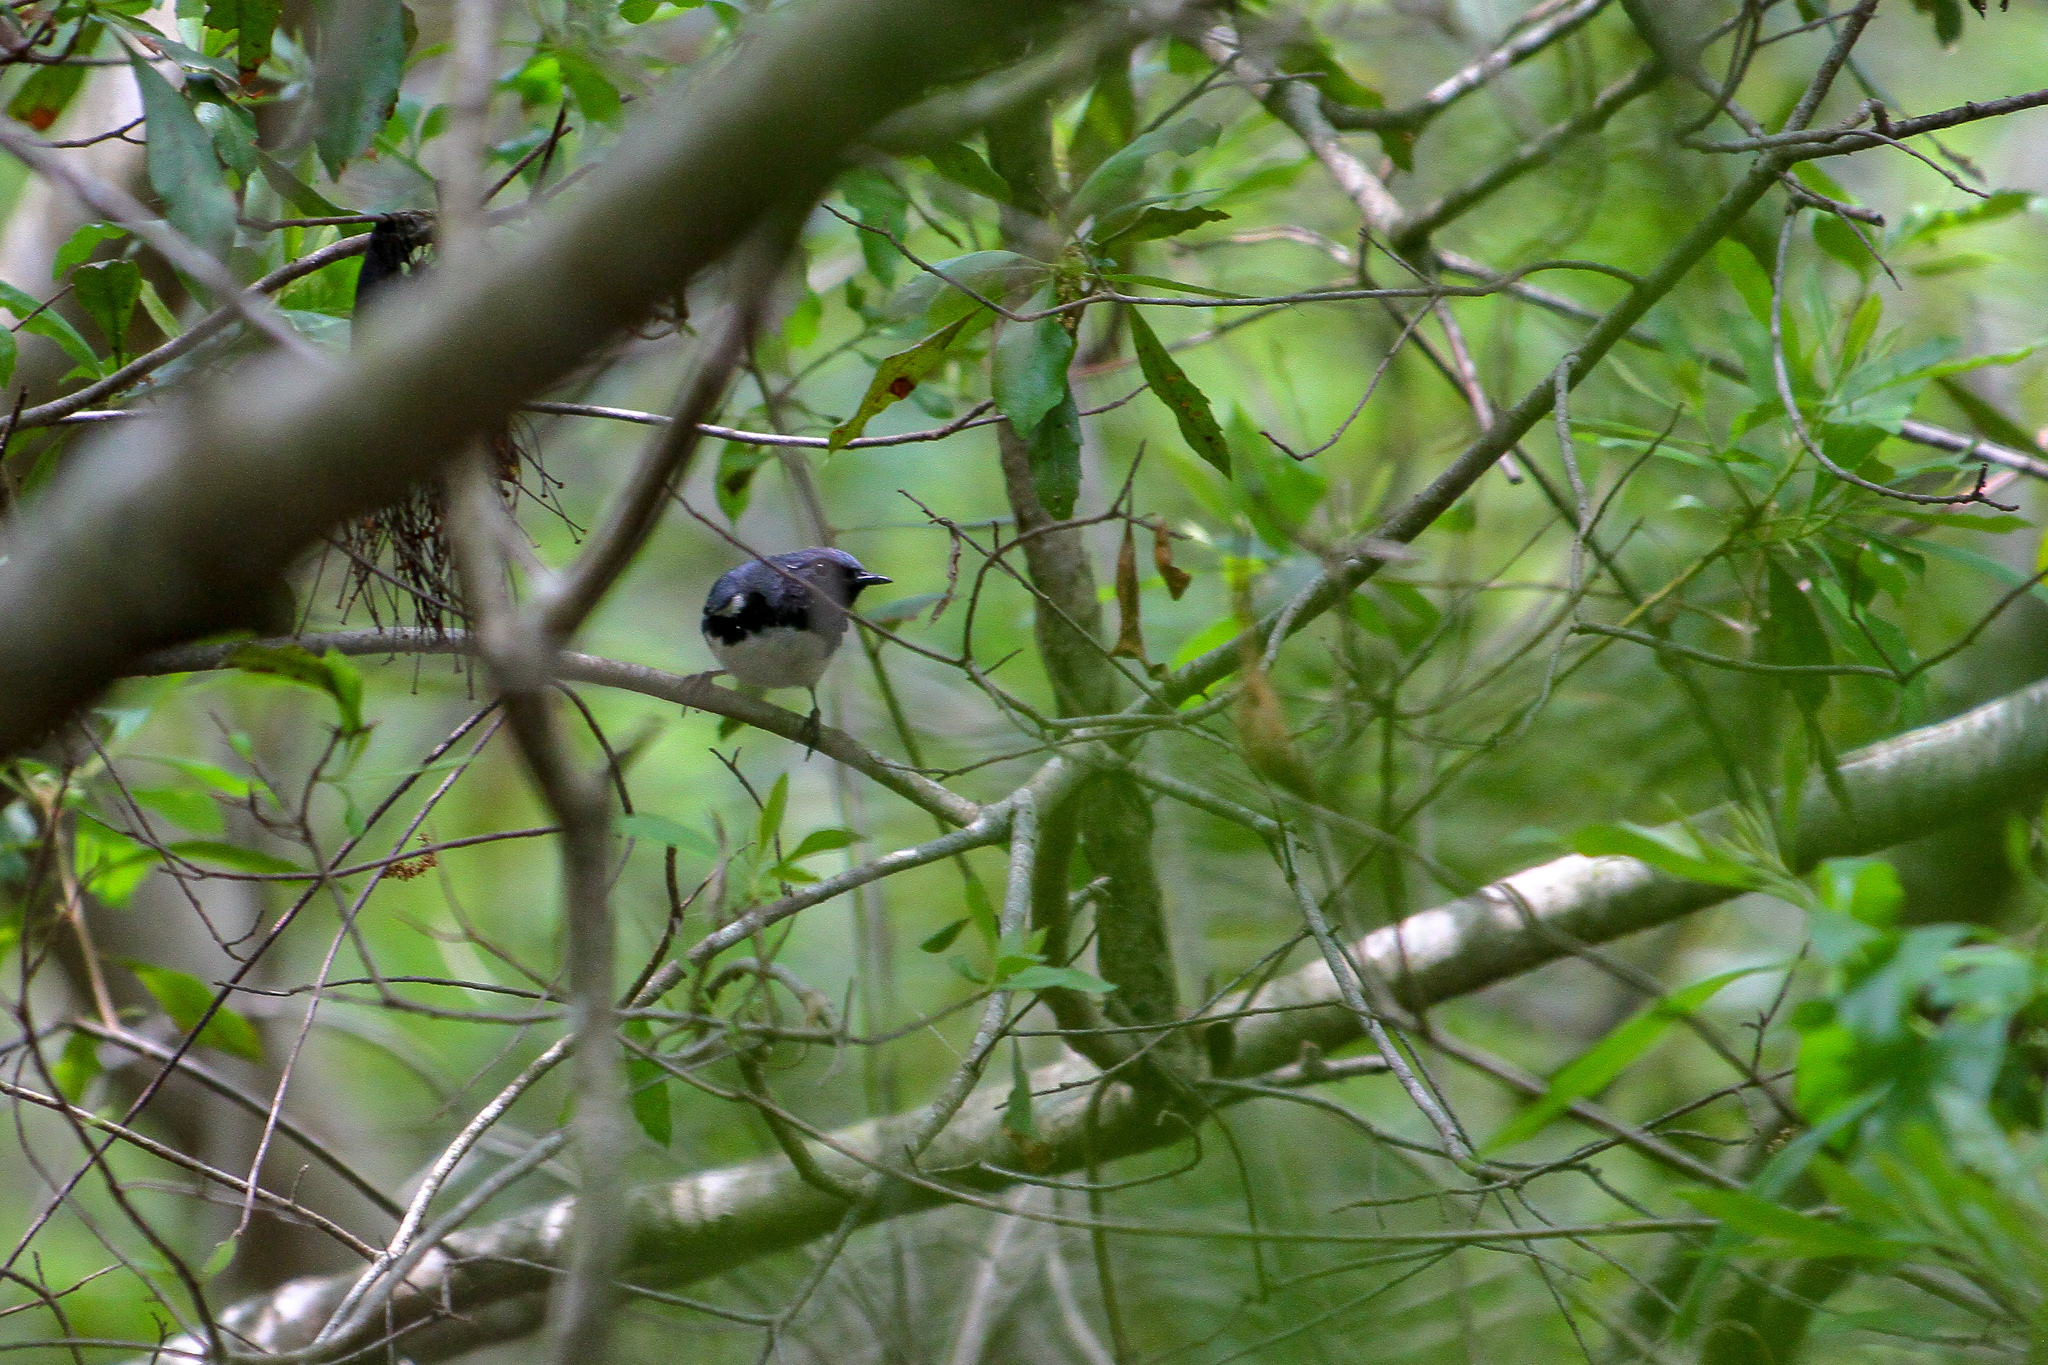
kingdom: Animalia
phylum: Chordata
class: Aves
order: Passeriformes
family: Parulidae
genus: Setophaga
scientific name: Setophaga caerulescens
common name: Black-throated blue warbler
